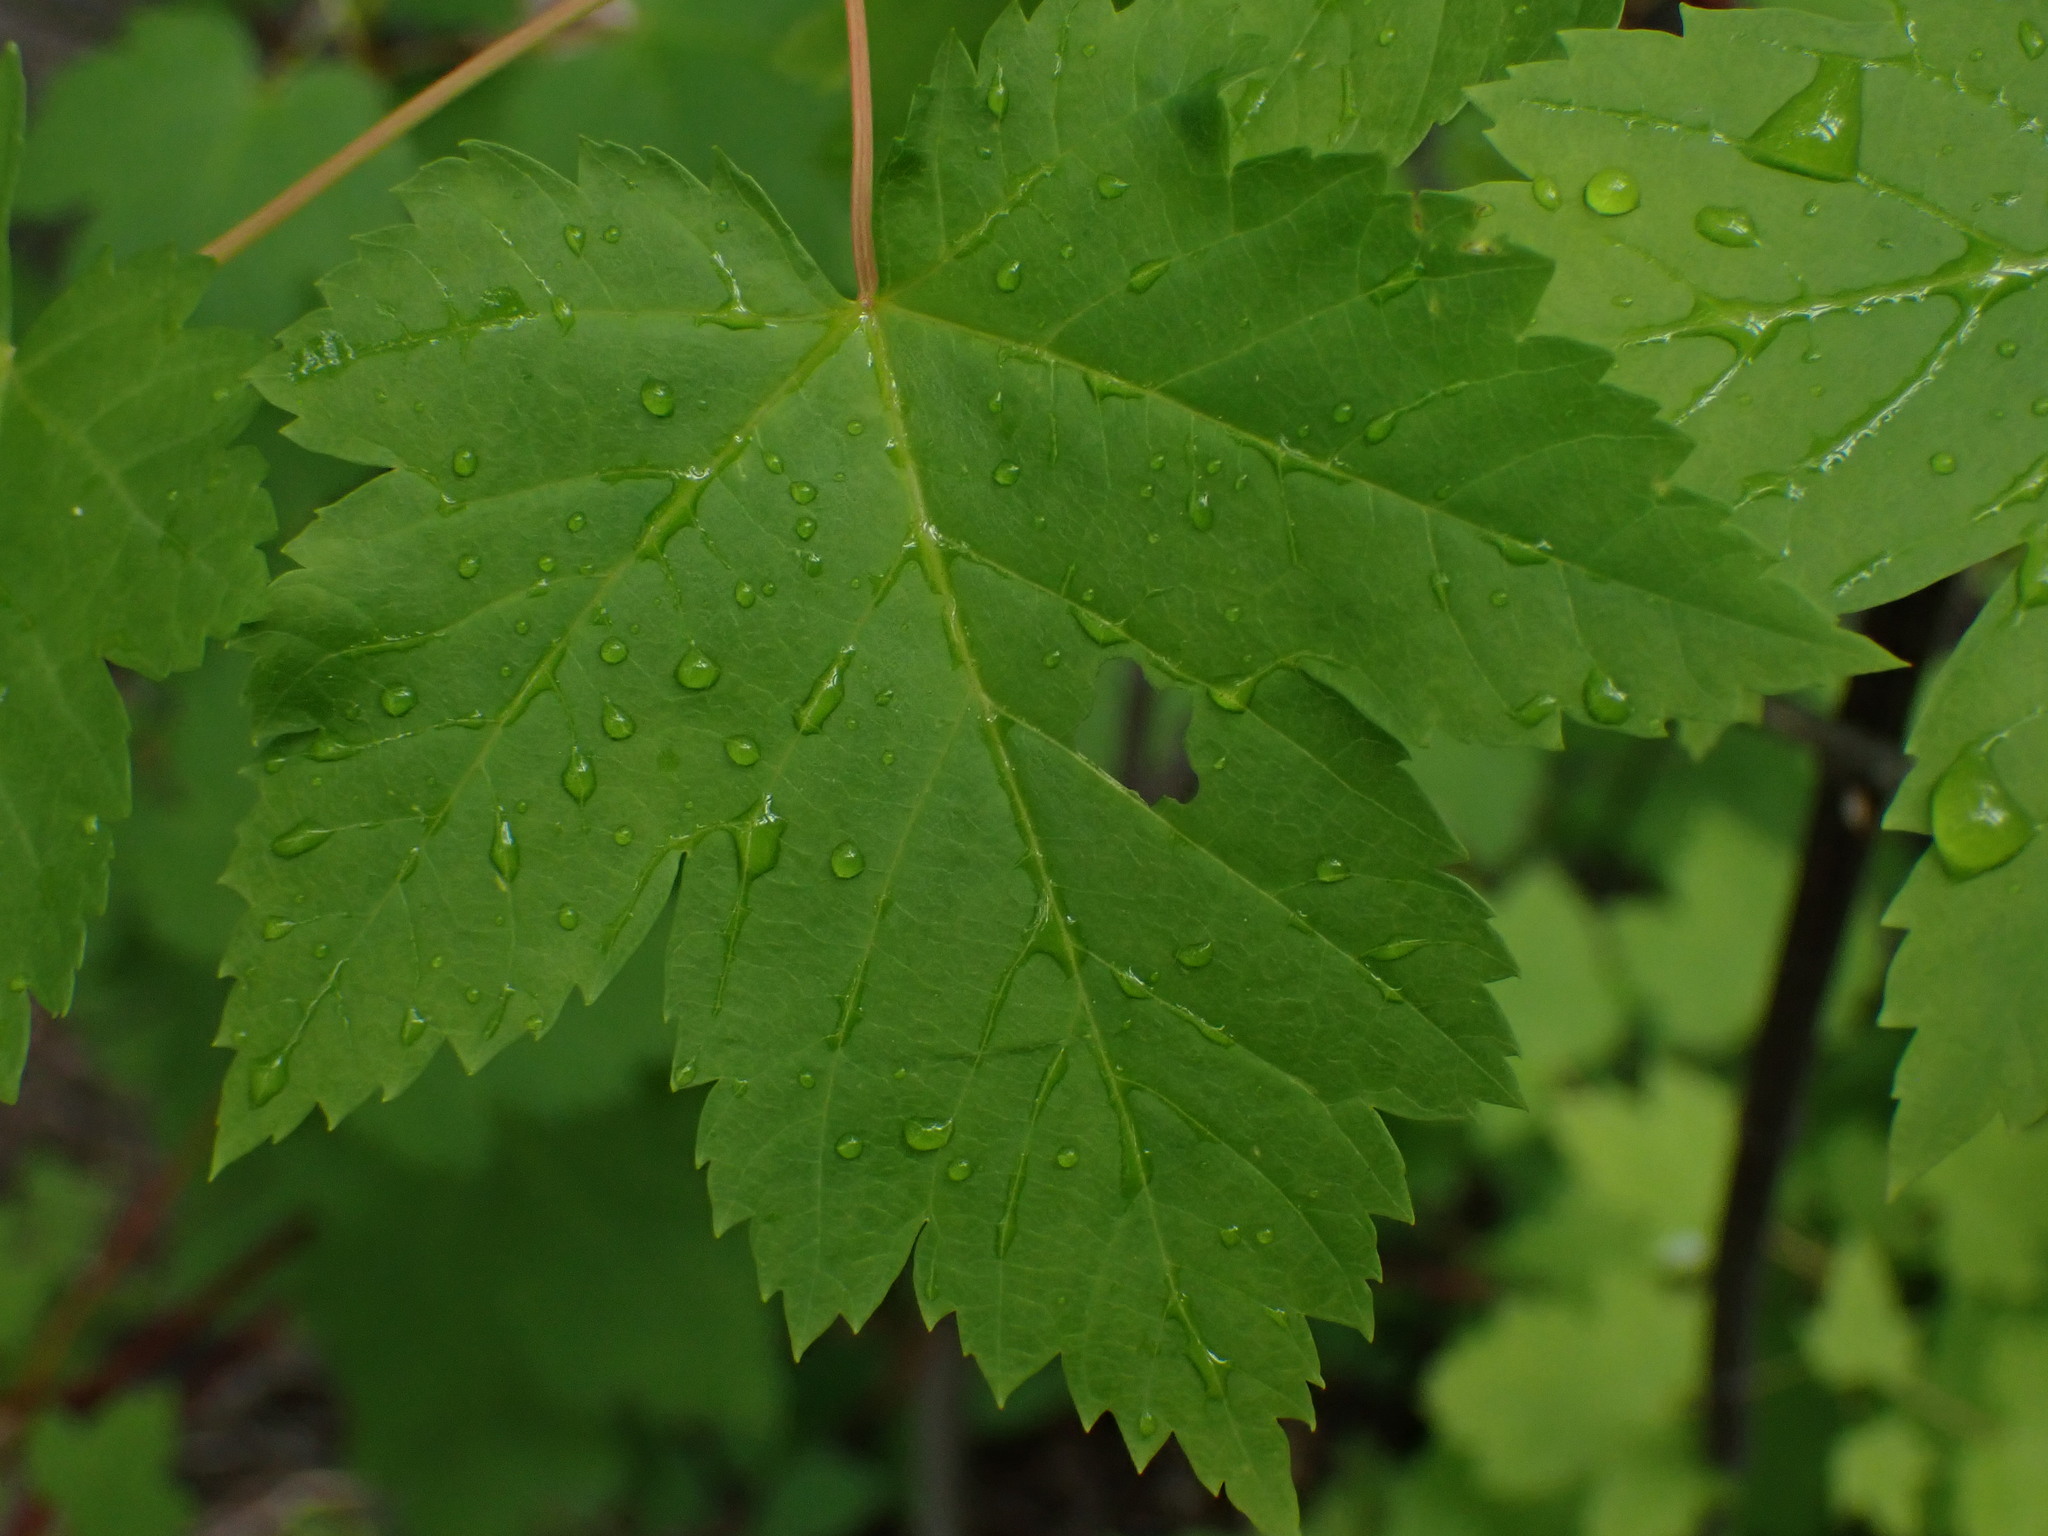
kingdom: Plantae
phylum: Tracheophyta
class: Magnoliopsida
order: Sapindales
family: Sapindaceae
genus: Acer
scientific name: Acer glabrum
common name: Rocky mountain maple
